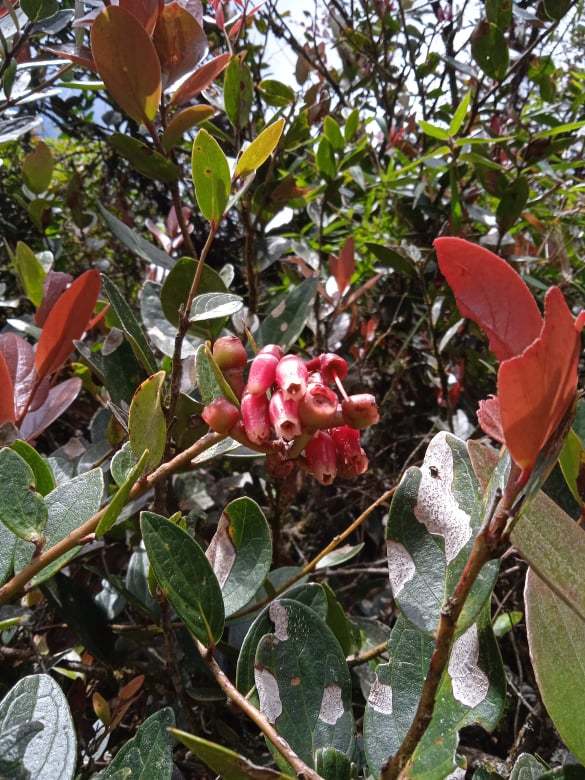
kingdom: Plantae
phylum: Tracheophyta
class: Magnoliopsida
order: Ericales
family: Ericaceae
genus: Macleania
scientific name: Macleania rupestris
